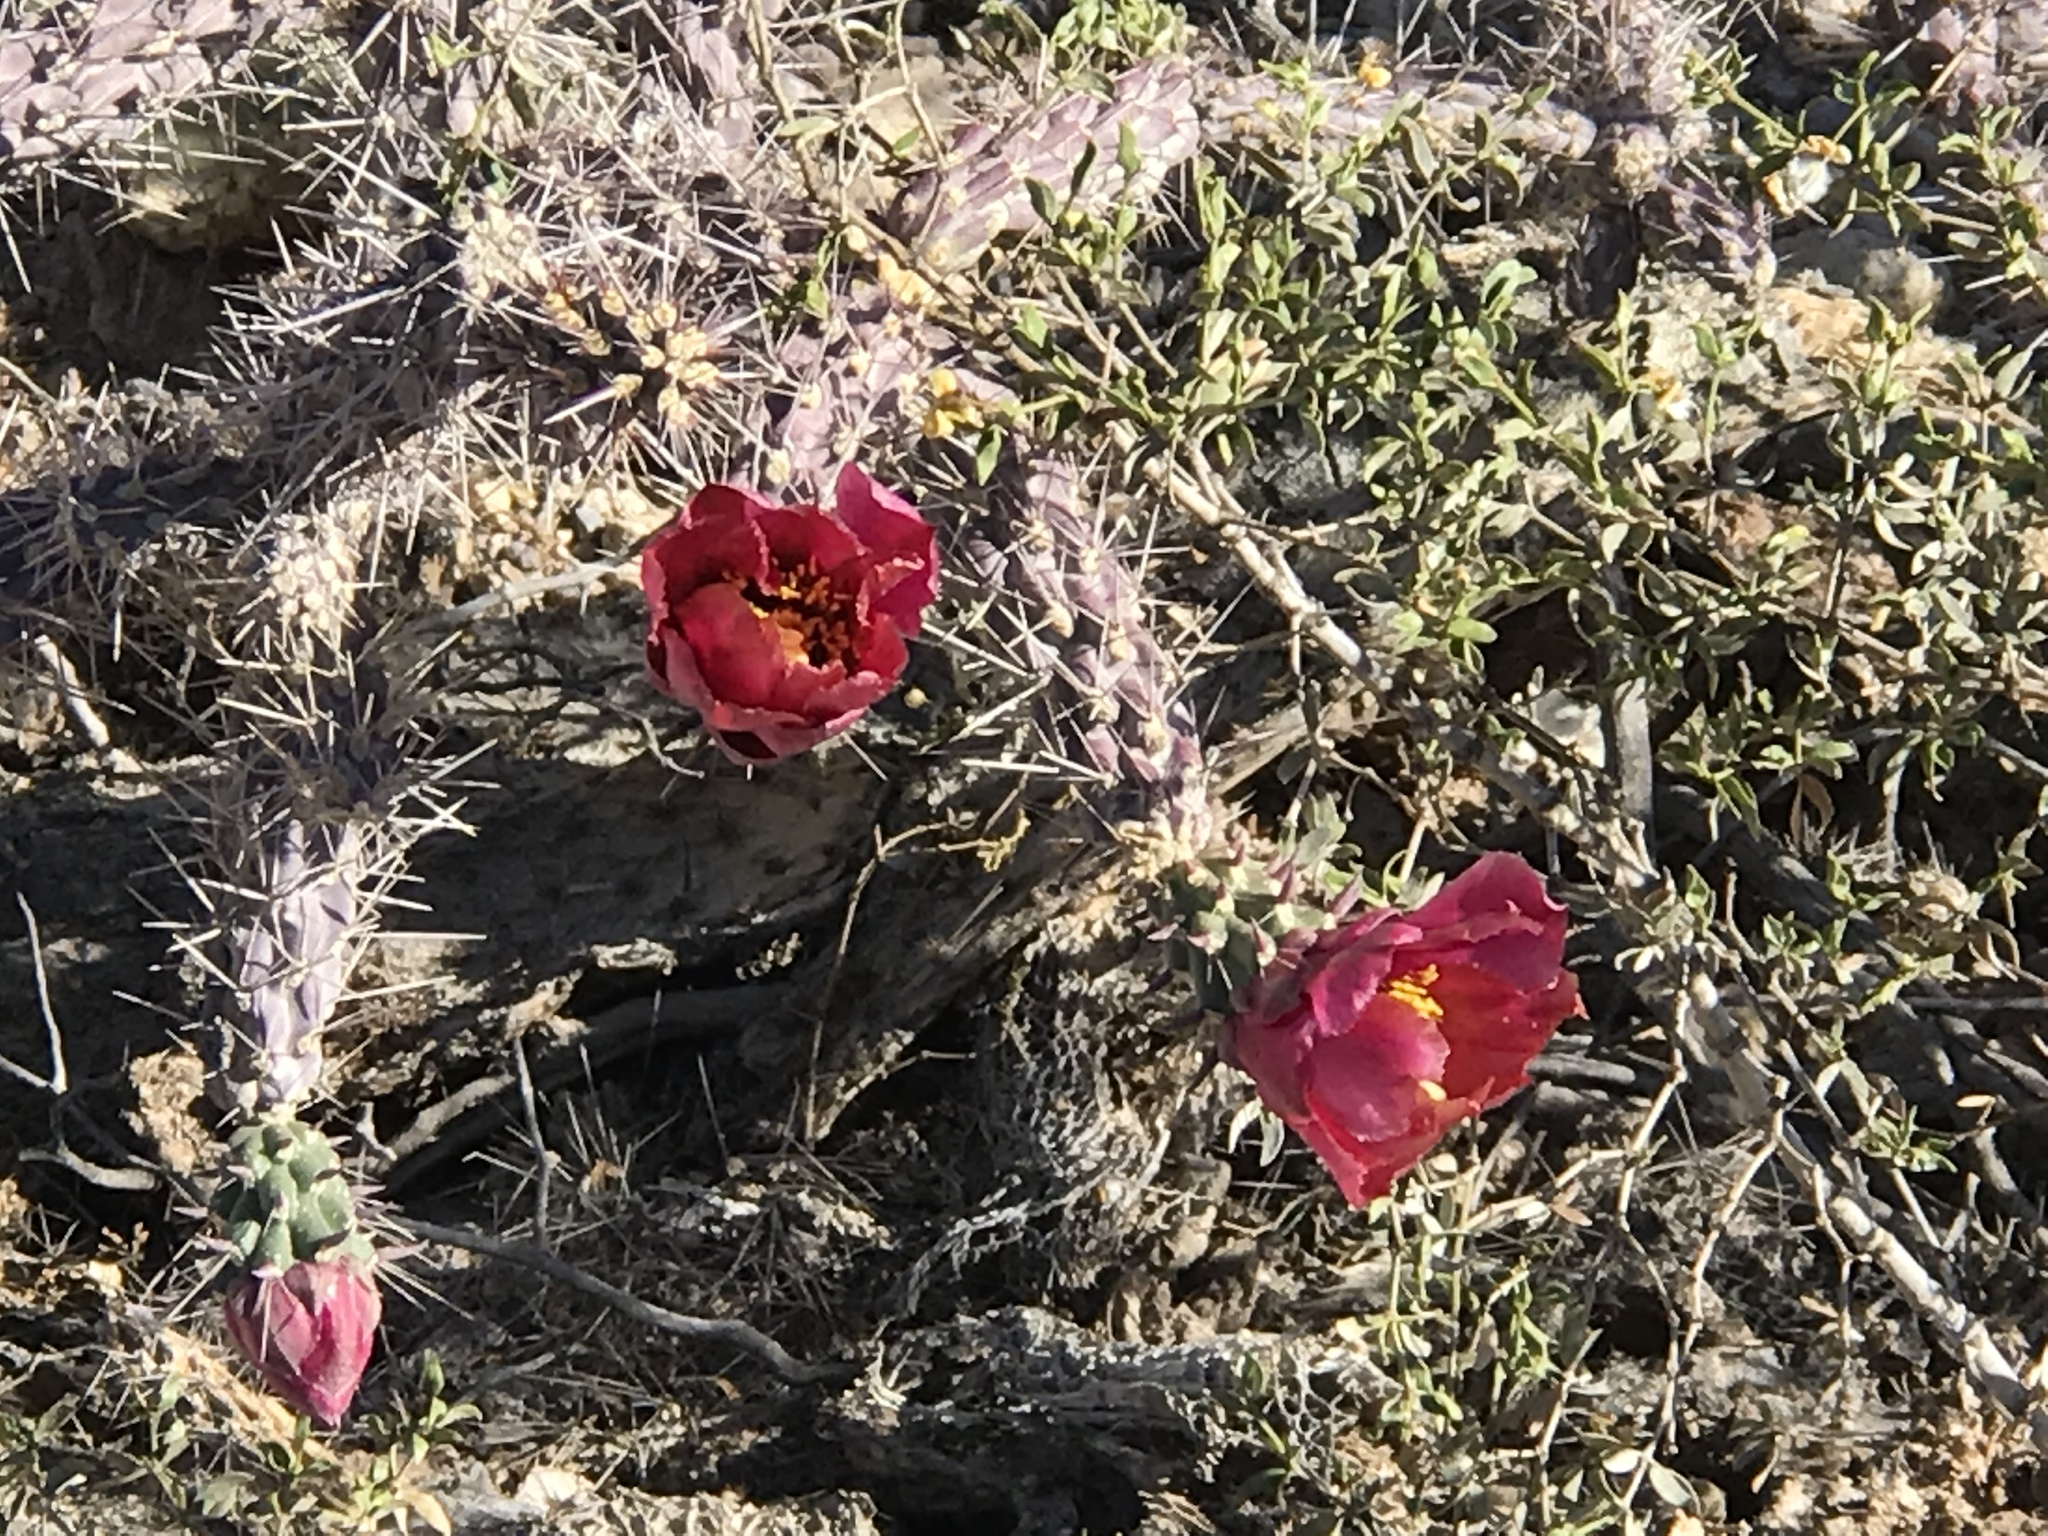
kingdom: Plantae
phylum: Tracheophyta
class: Magnoliopsida
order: Caryophyllales
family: Cactaceae
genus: Cylindropuntia
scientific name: Cylindropuntia thurberi
